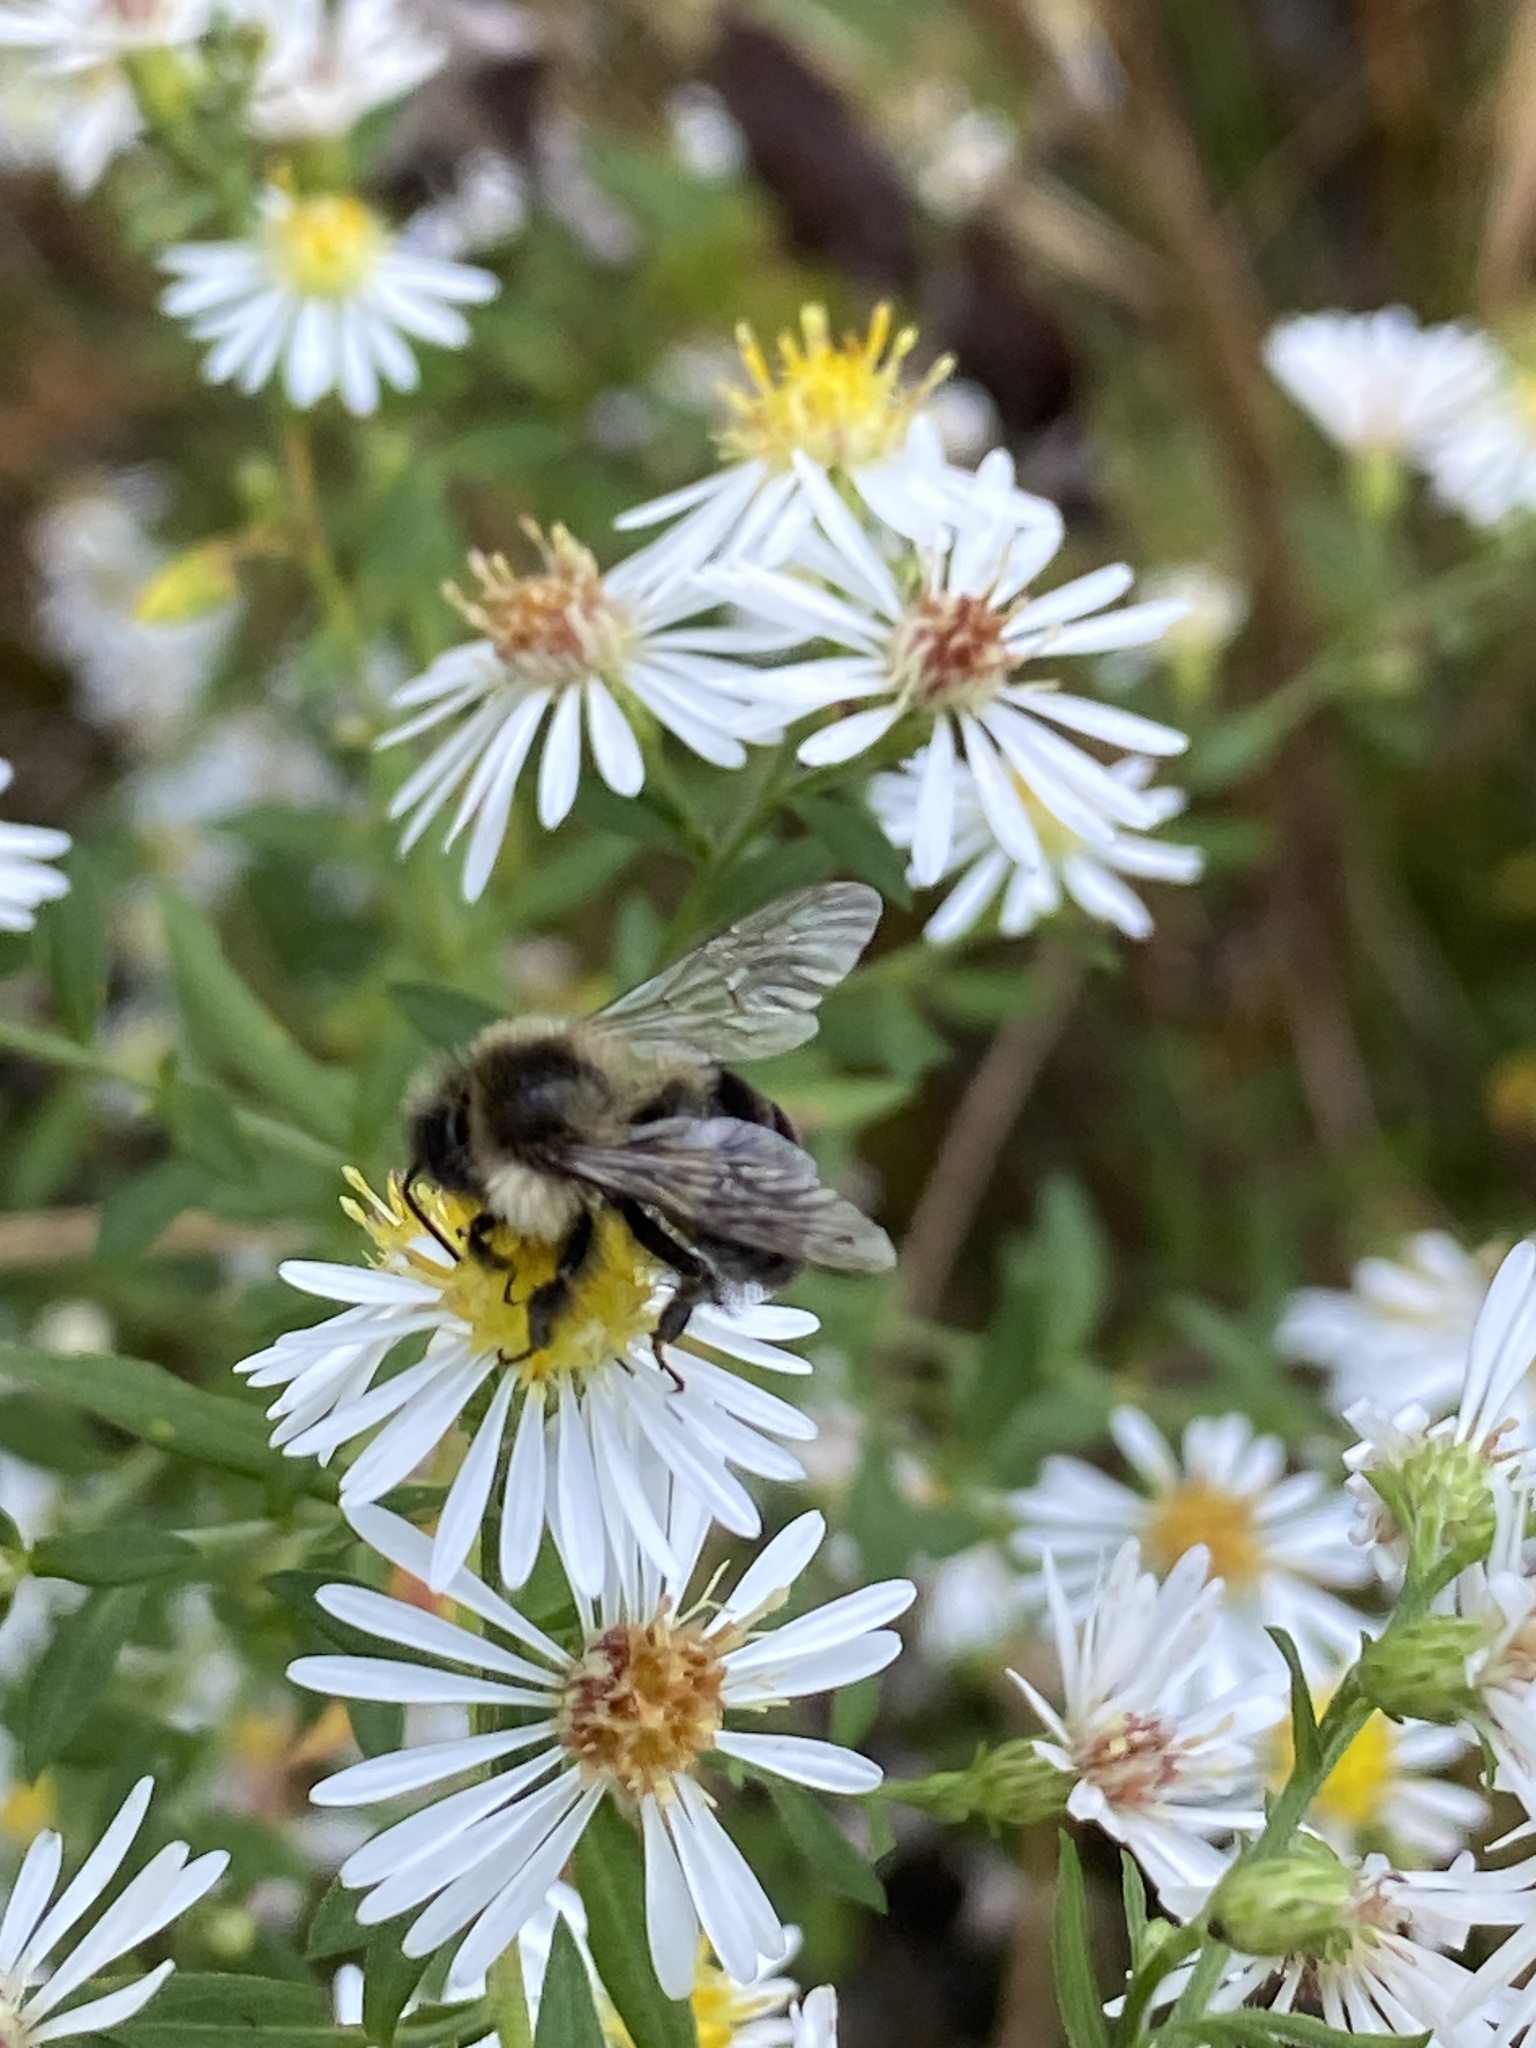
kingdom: Animalia
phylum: Arthropoda
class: Insecta
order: Hymenoptera
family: Apidae
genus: Bombus
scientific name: Bombus impatiens
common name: Common eastern bumble bee
